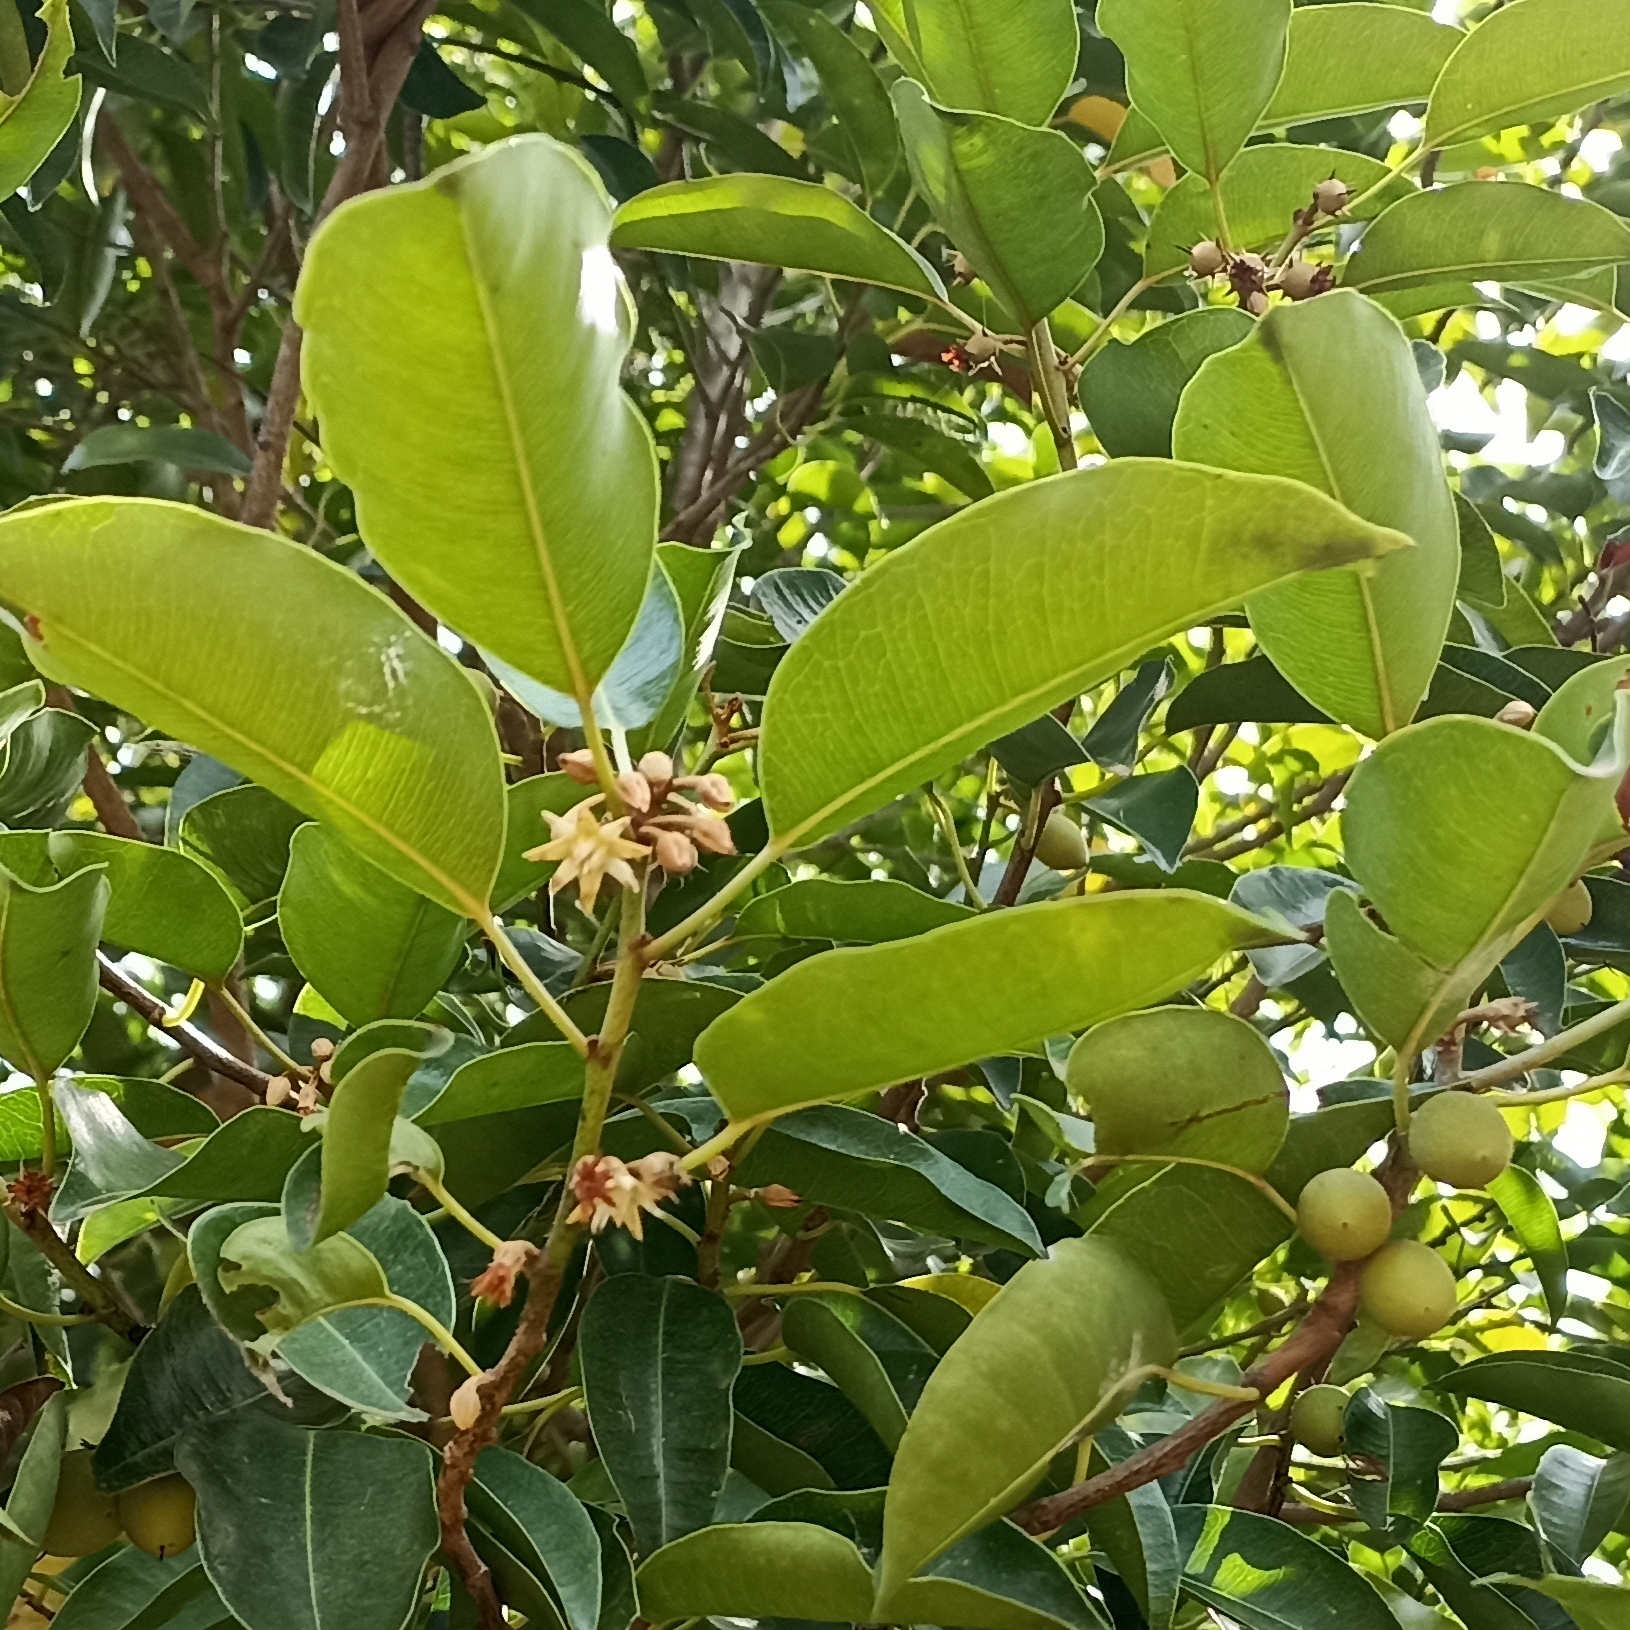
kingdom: Plantae
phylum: Tracheophyta
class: Magnoliopsida
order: Ericales
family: Sapotaceae
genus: Mimusops
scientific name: Mimusops elengi
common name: Spanish cherry
